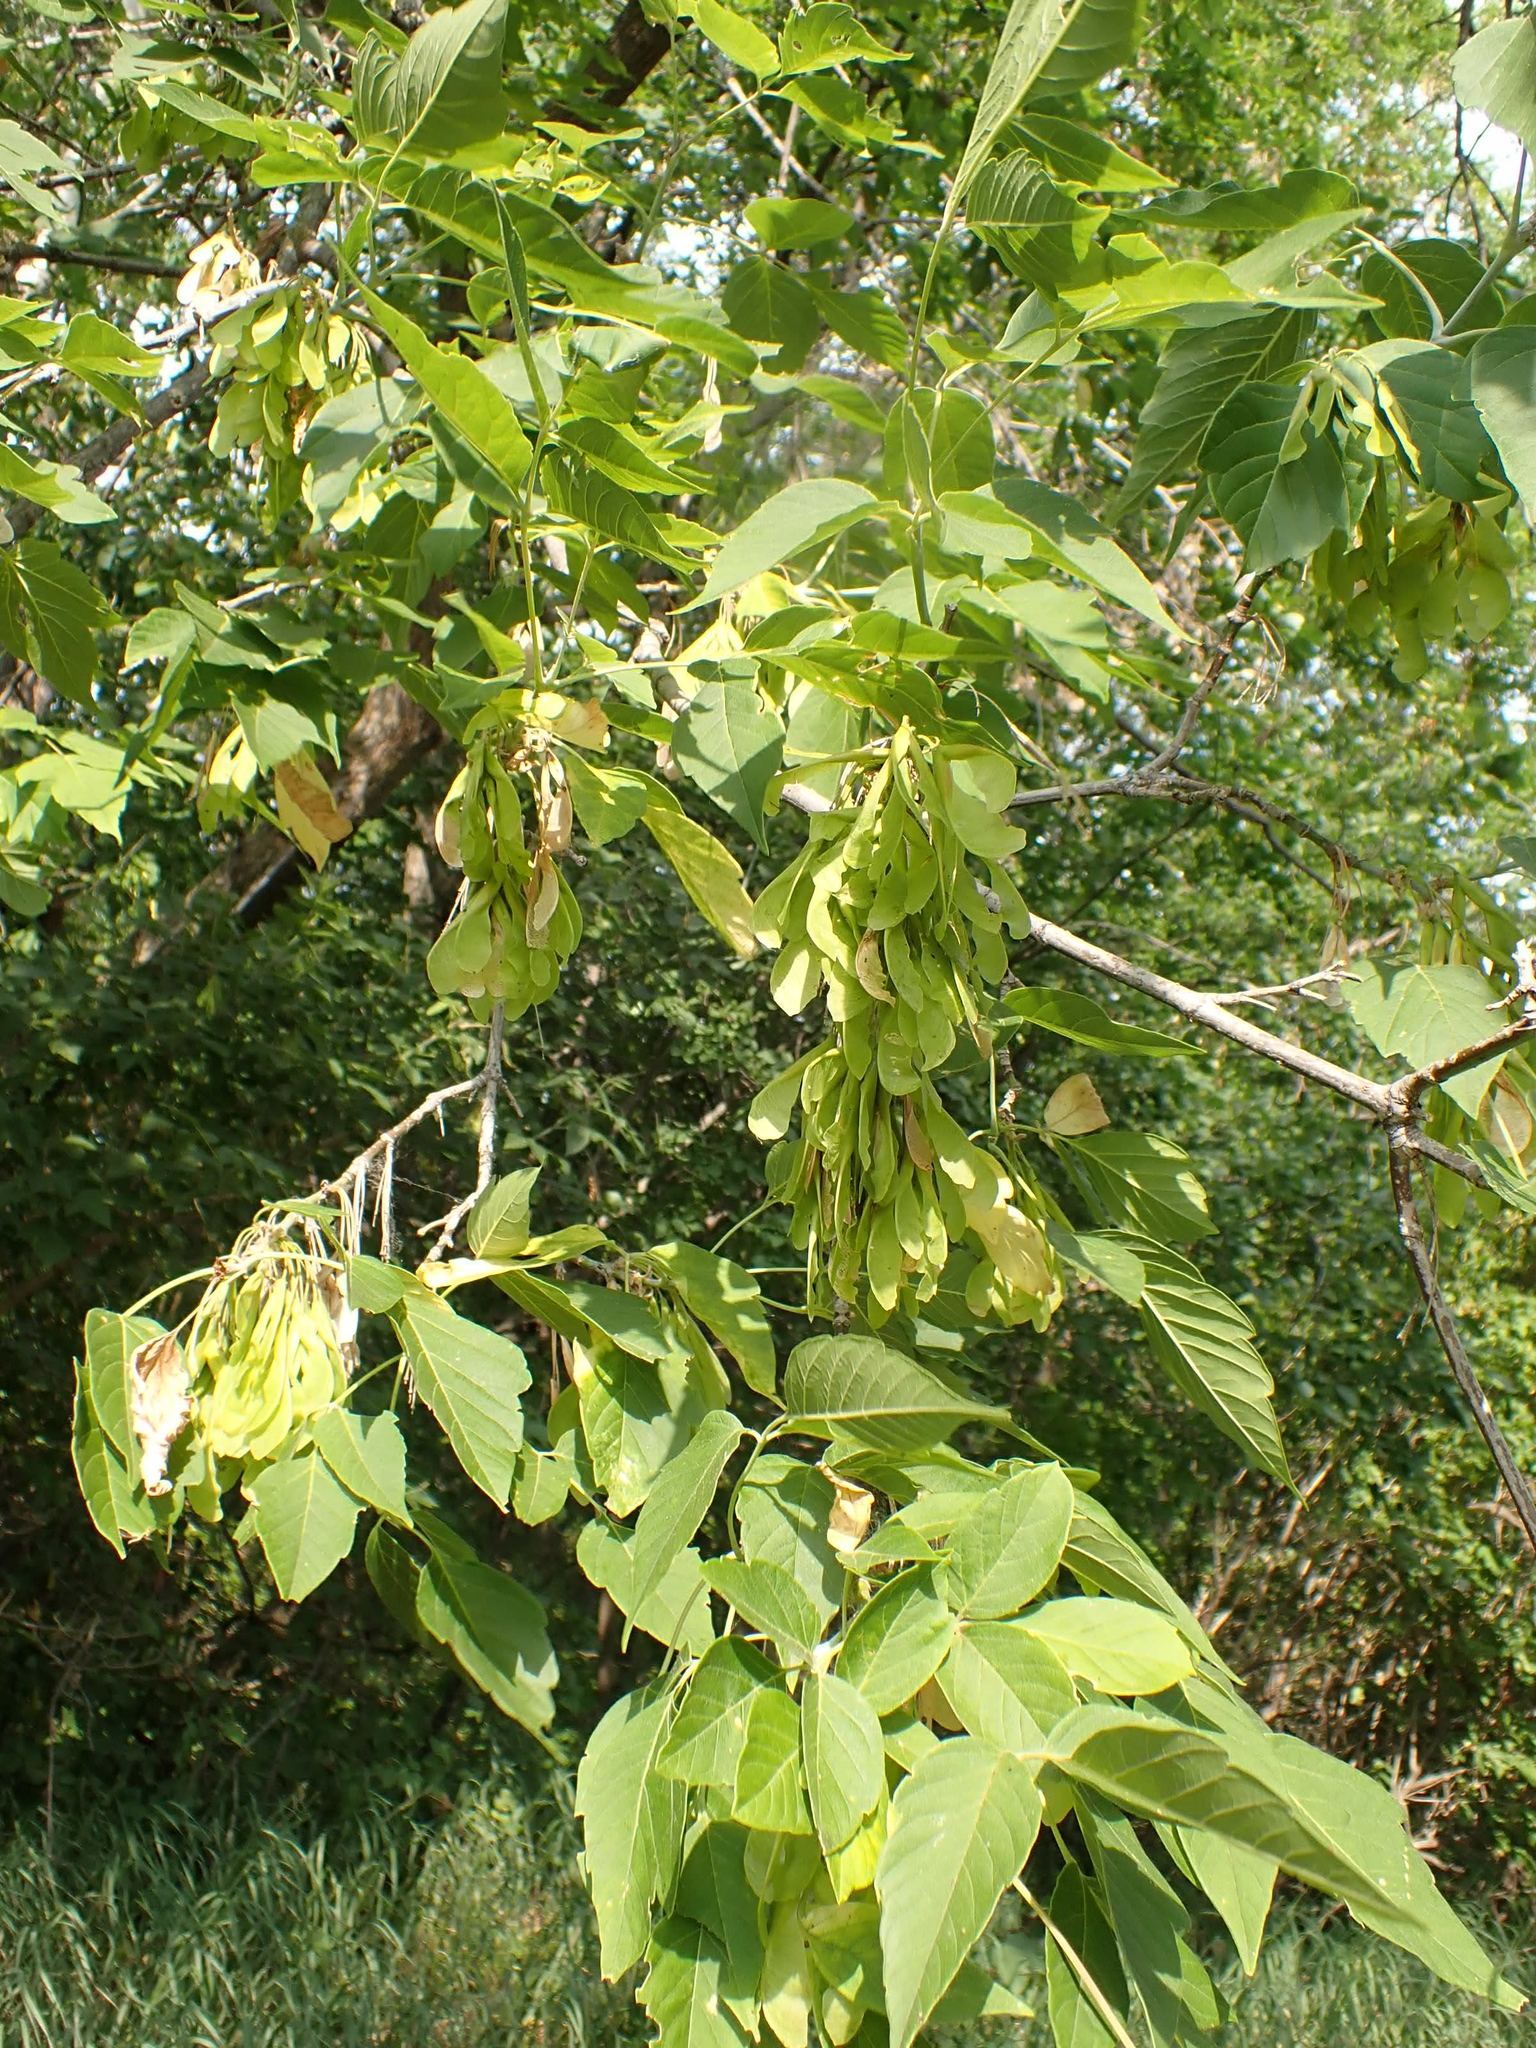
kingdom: Plantae
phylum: Tracheophyta
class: Magnoliopsida
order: Sapindales
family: Sapindaceae
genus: Acer
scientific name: Acer negundo
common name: Ashleaf maple
